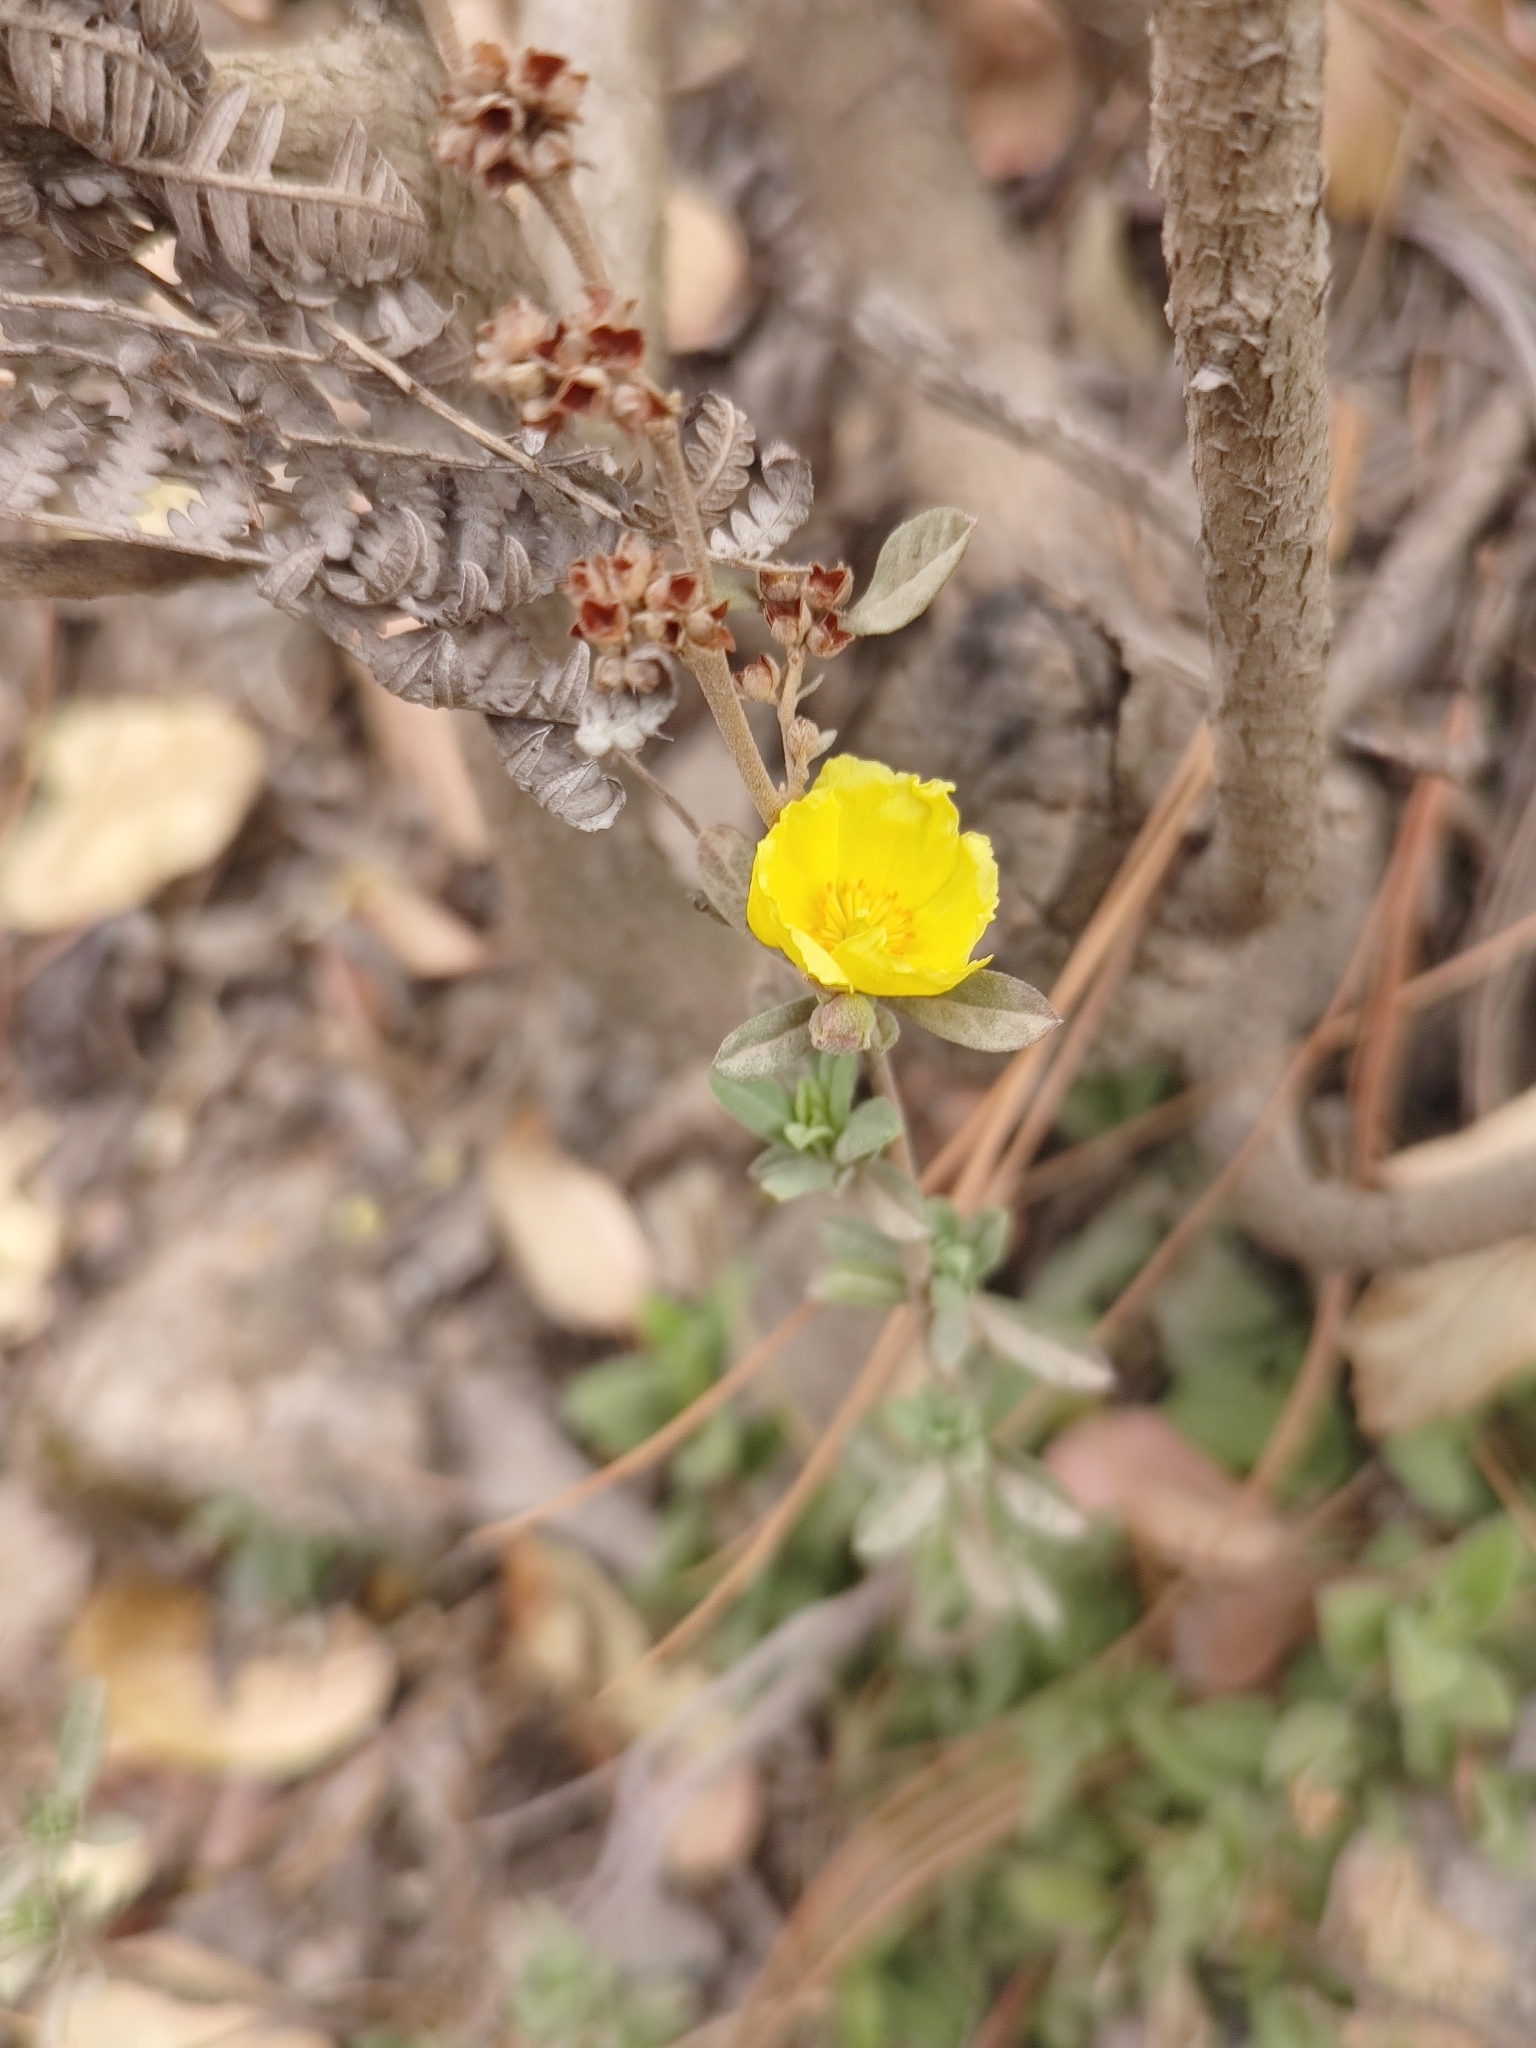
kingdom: Plantae
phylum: Tracheophyta
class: Magnoliopsida
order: Malvales
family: Cistaceae
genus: Crocanthemum
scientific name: Crocanthemum glomeratum
